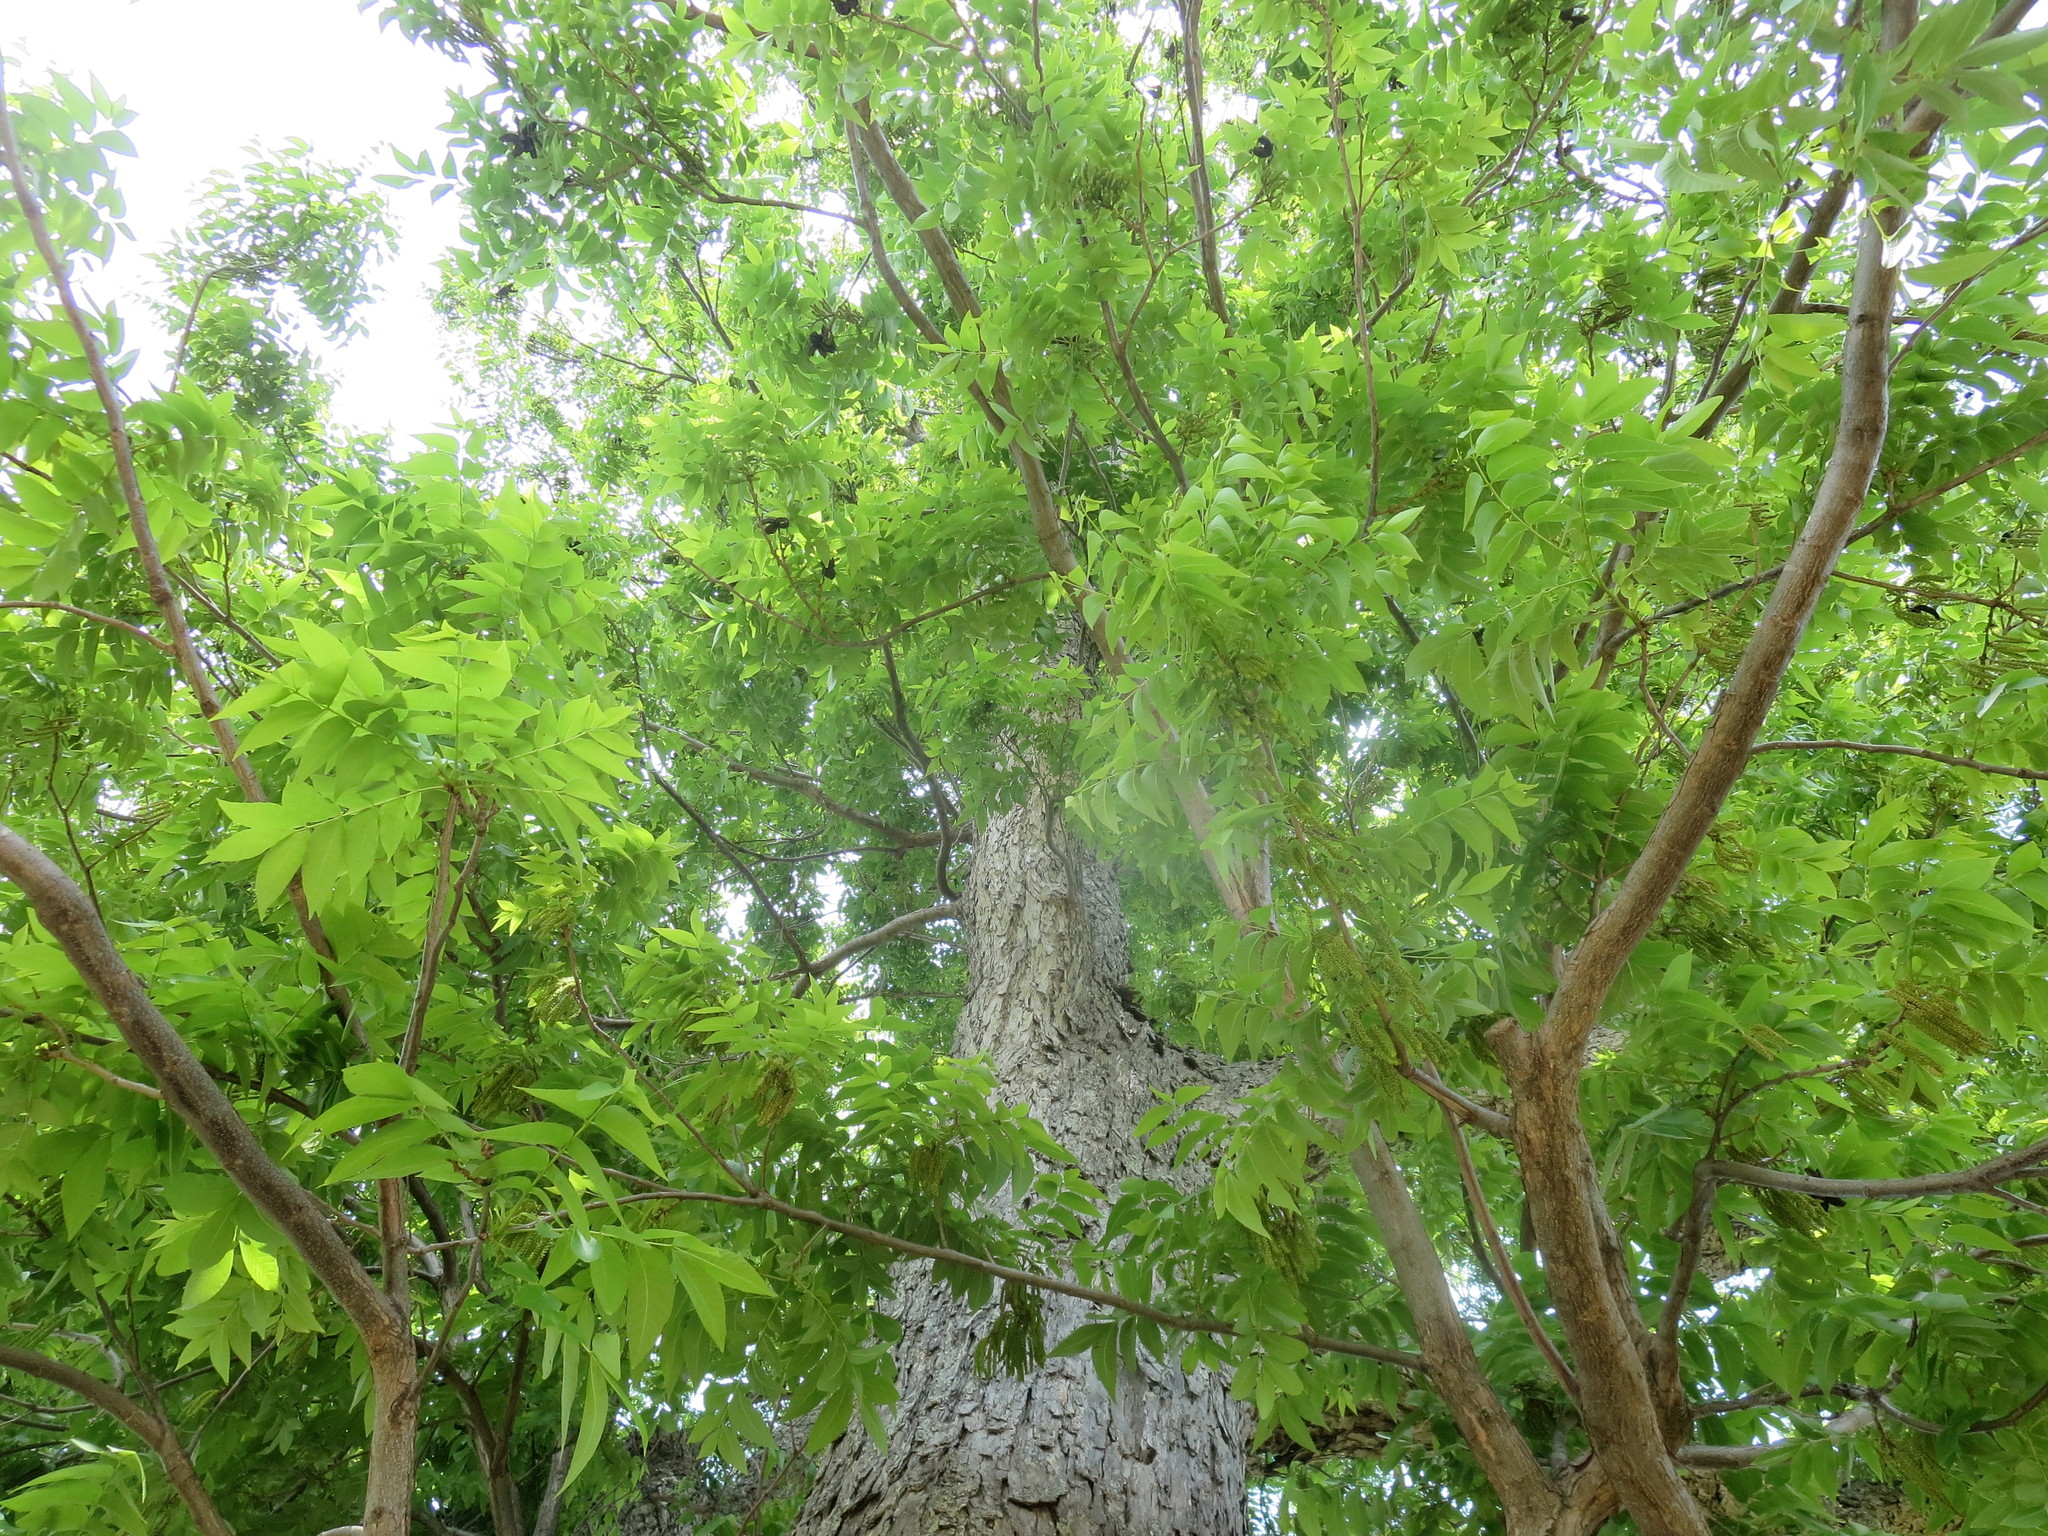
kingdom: Plantae
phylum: Tracheophyta
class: Magnoliopsida
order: Fagales
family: Juglandaceae
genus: Carya
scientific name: Carya illinoinensis
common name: Pecan
